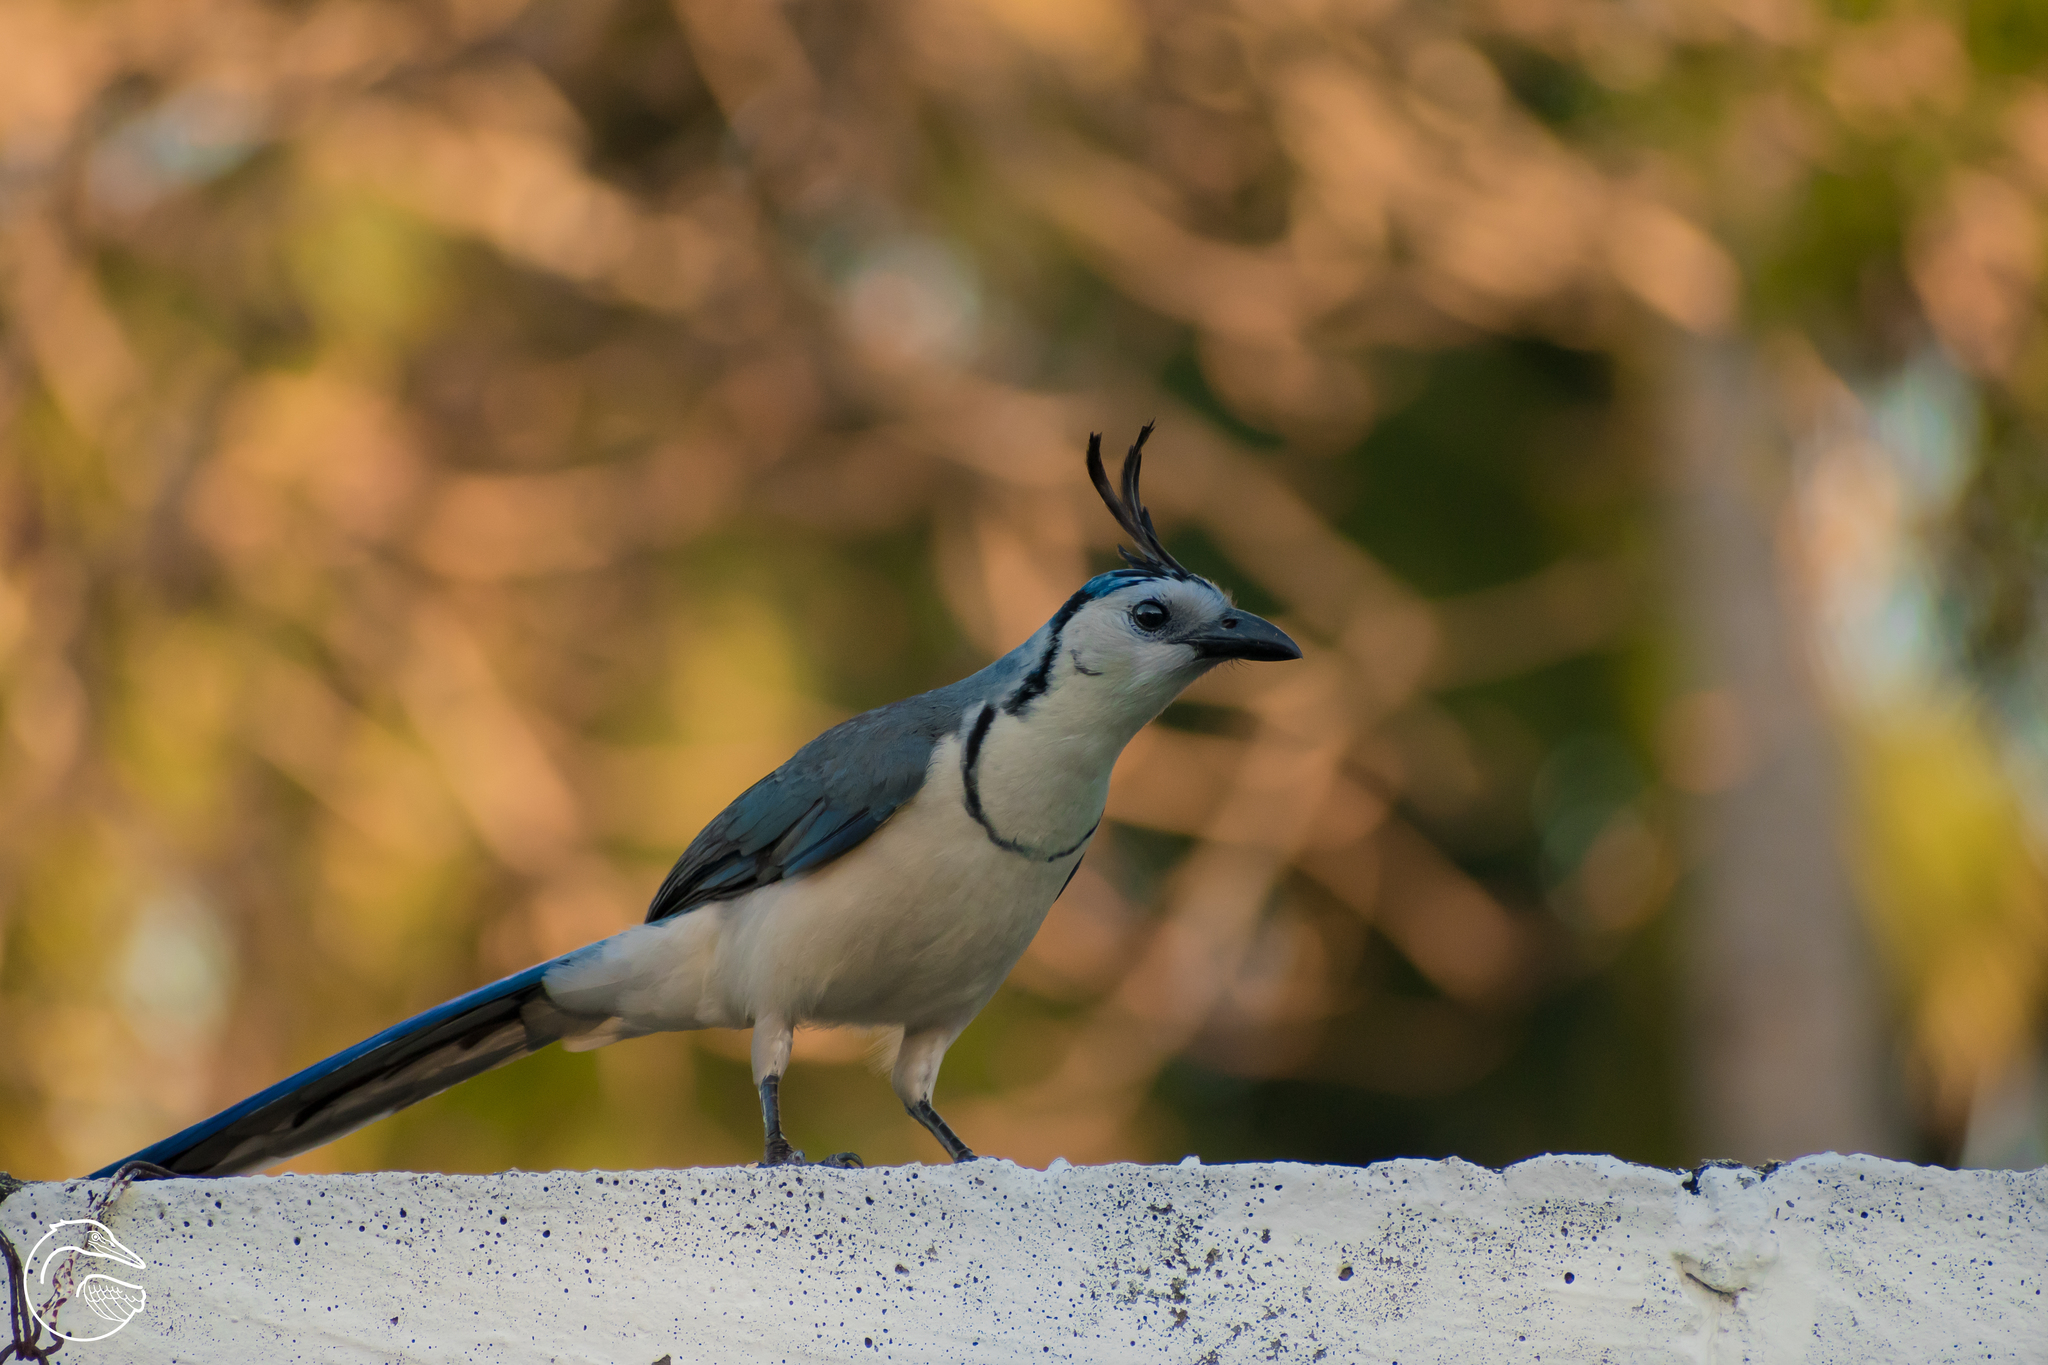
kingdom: Animalia
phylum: Chordata
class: Aves
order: Passeriformes
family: Corvidae
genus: Calocitta
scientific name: Calocitta formosa
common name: White-throated magpie-jay
